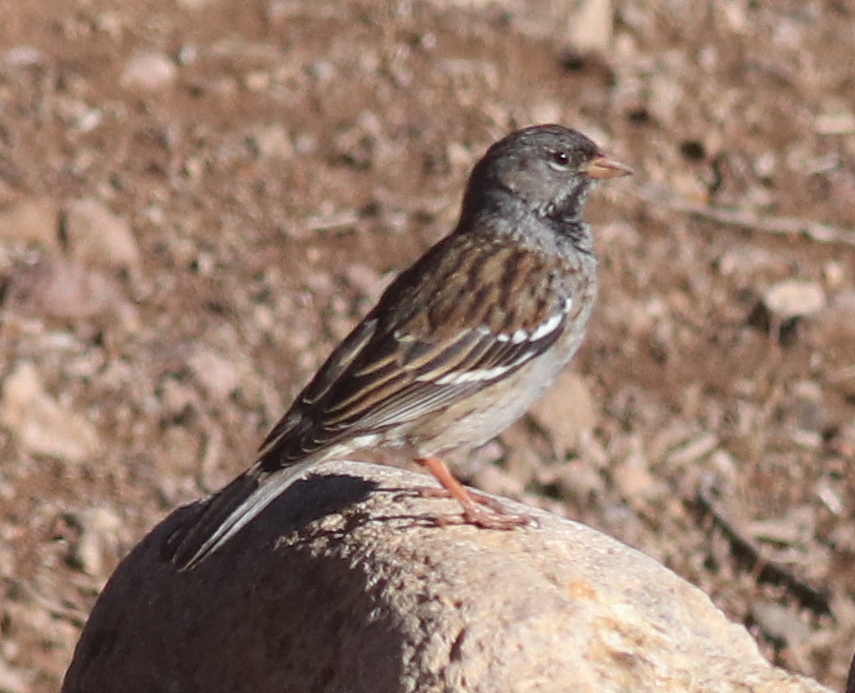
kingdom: Animalia
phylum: Chordata
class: Aves
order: Passeriformes
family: Thraupidae
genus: Rhopospina
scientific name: Rhopospina fruticeti
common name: Mourning sierra finch
